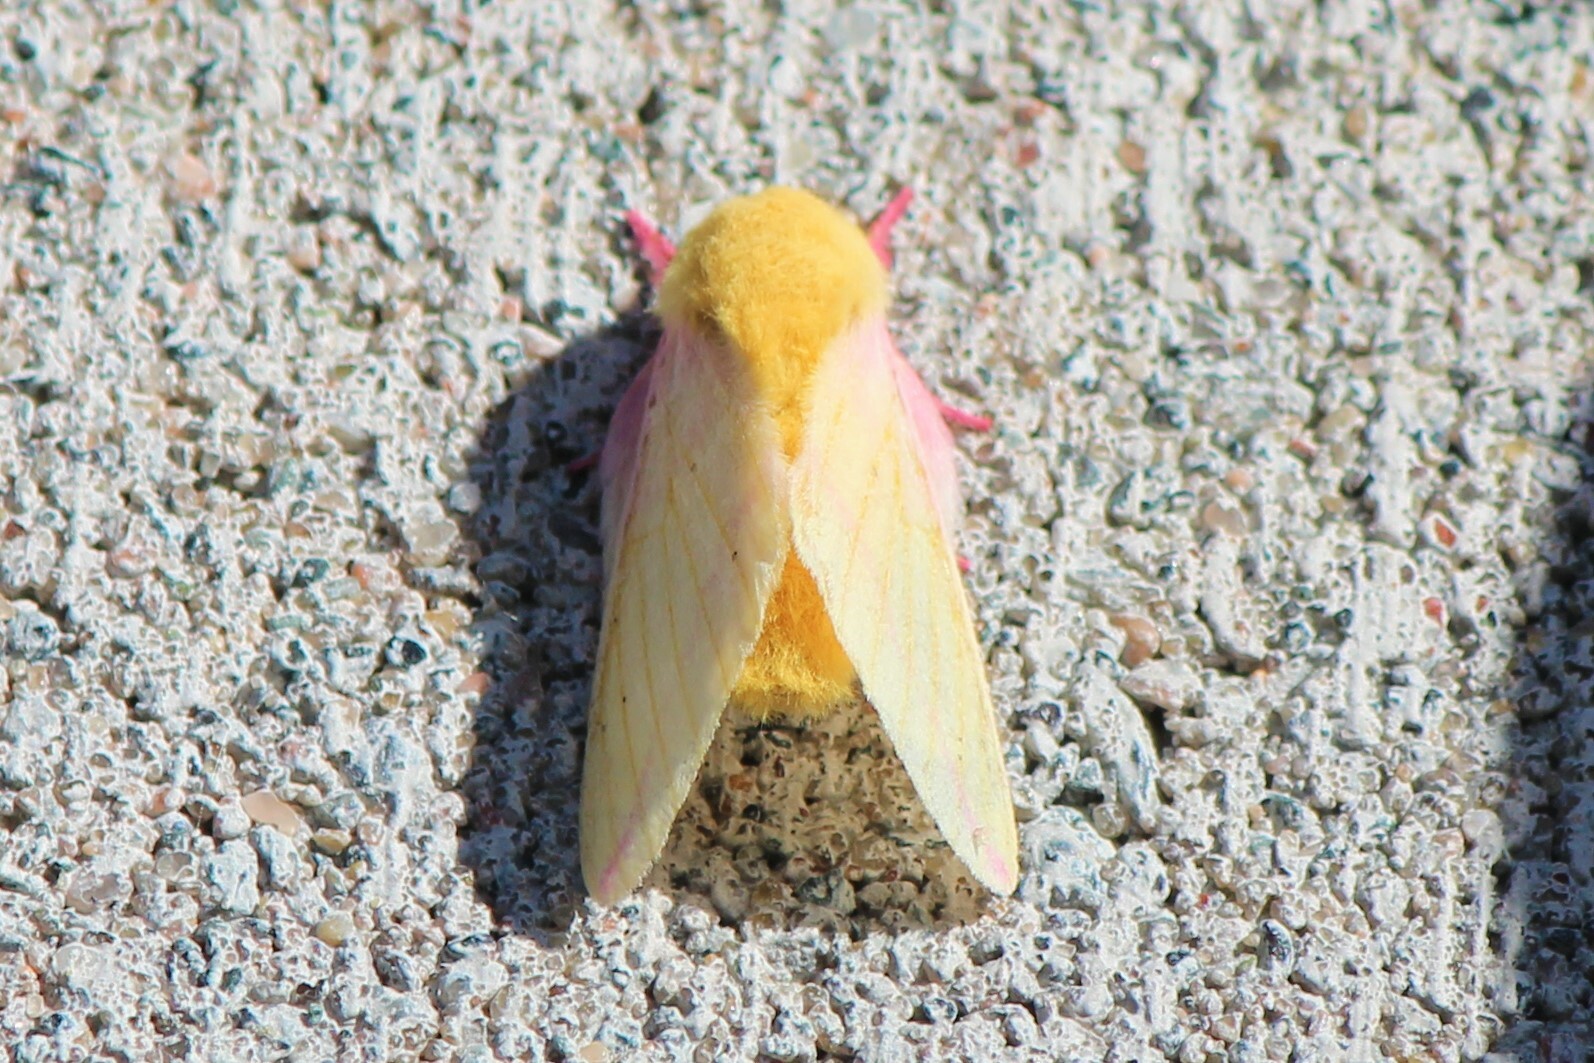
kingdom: Animalia
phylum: Arthropoda
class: Insecta
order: Lepidoptera
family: Saturniidae
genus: Dryocampa
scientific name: Dryocampa rubicunda
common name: Rosy maple moth
